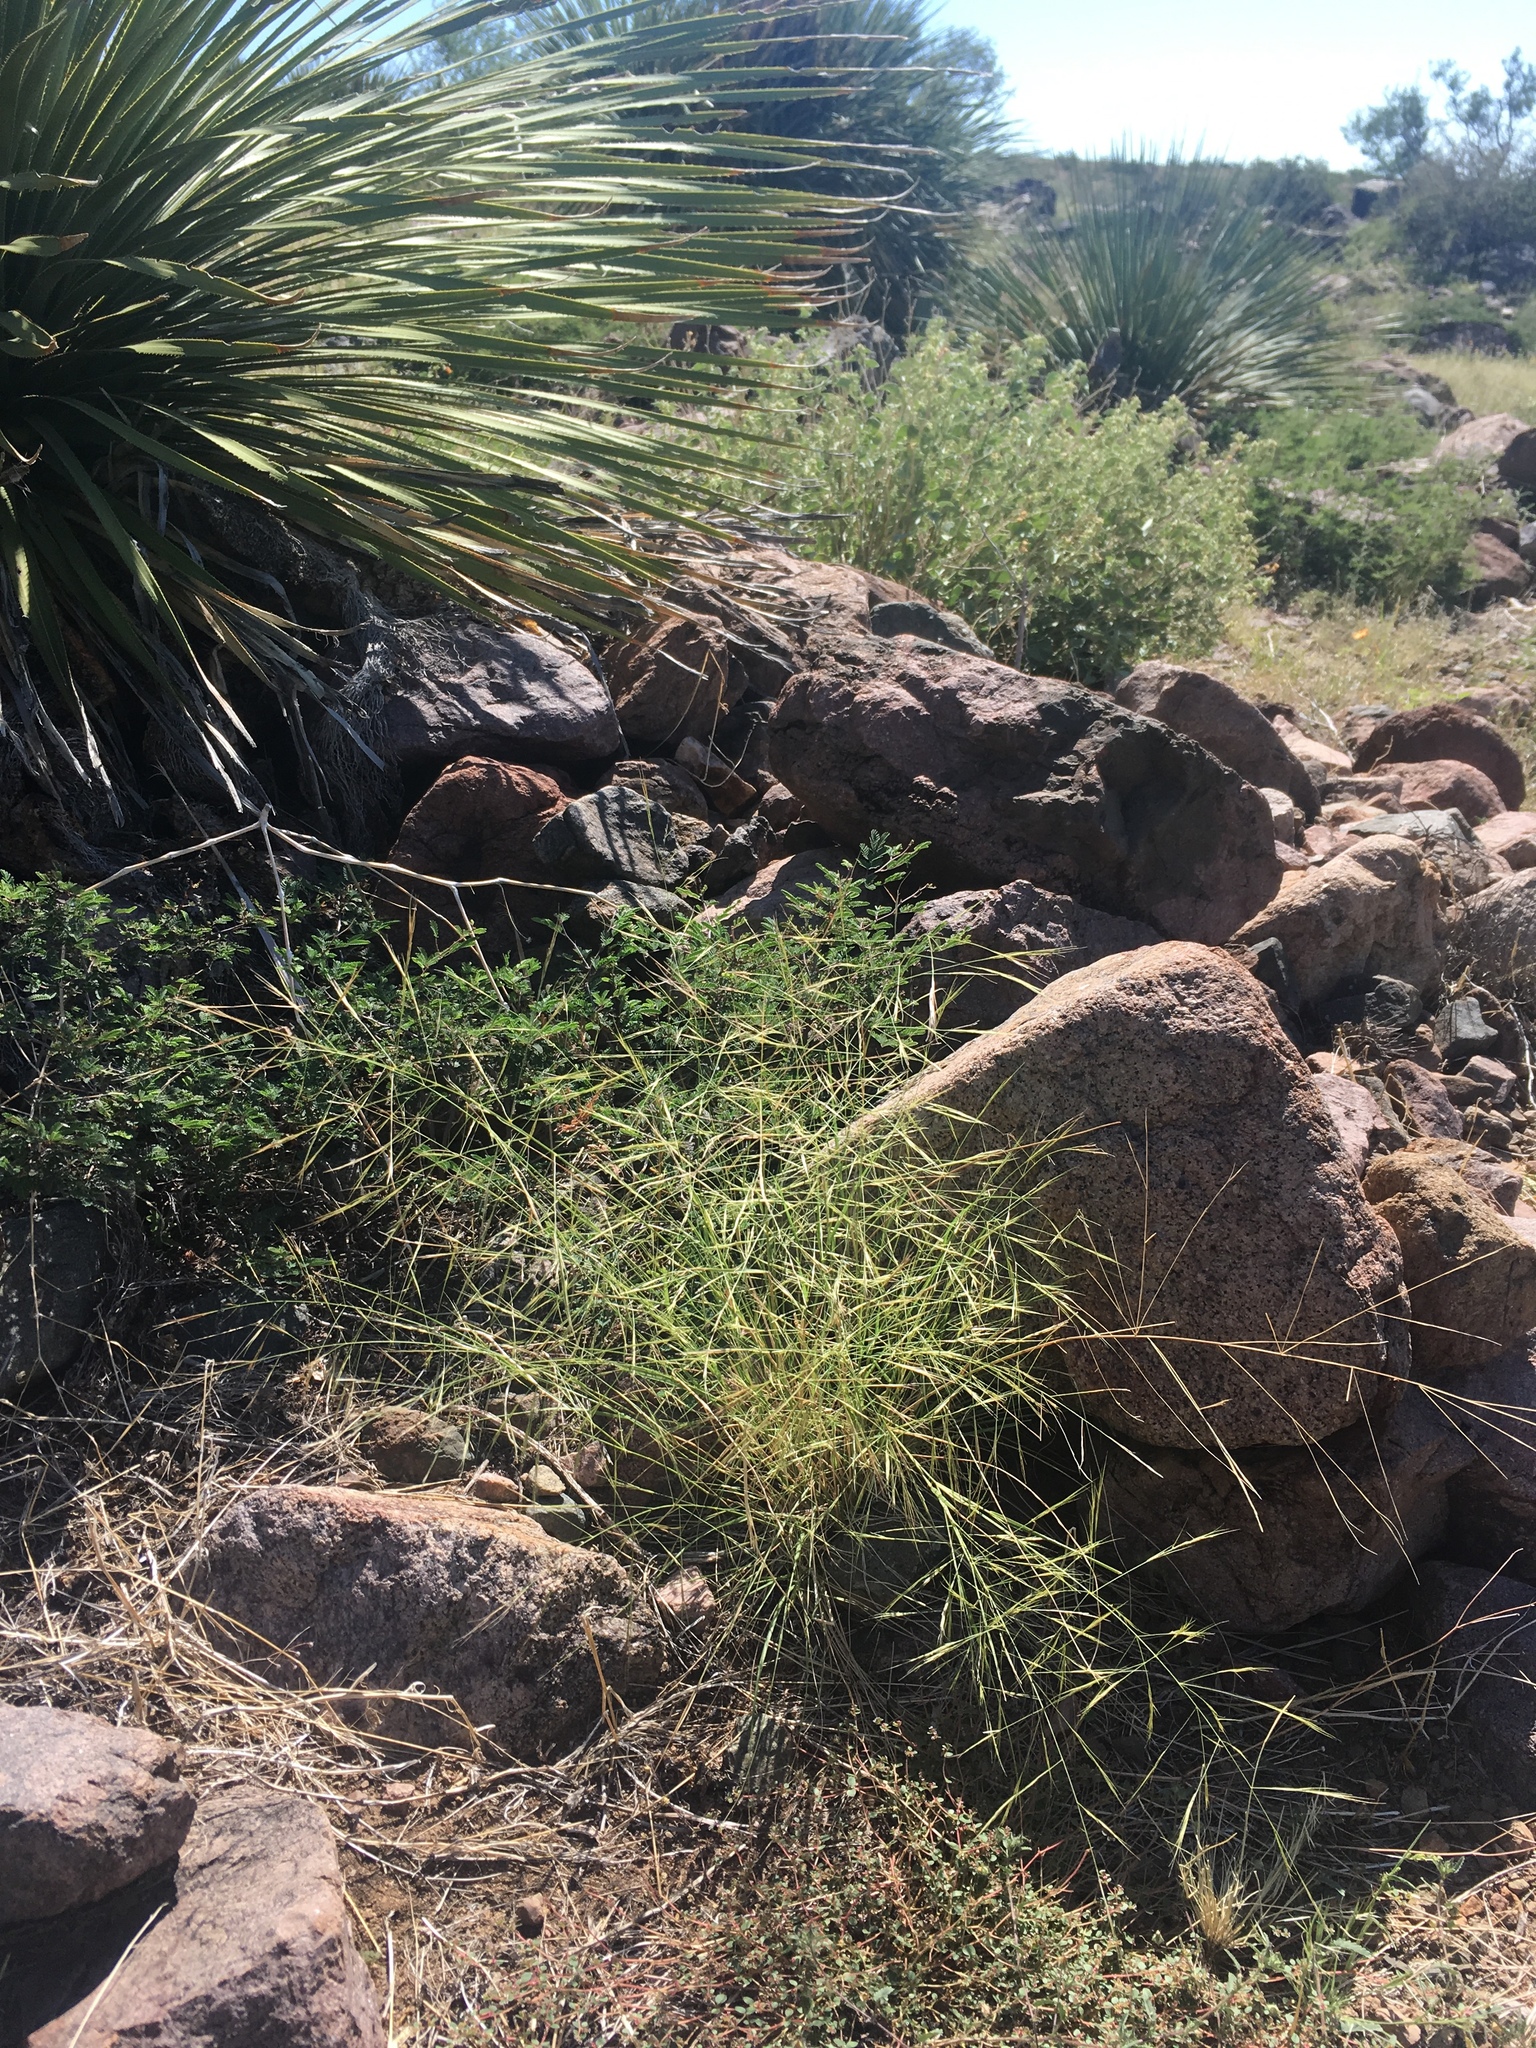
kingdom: Plantae
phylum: Tracheophyta
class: Liliopsida
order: Poales
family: Poaceae
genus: Aristida
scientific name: Aristida ternipes
